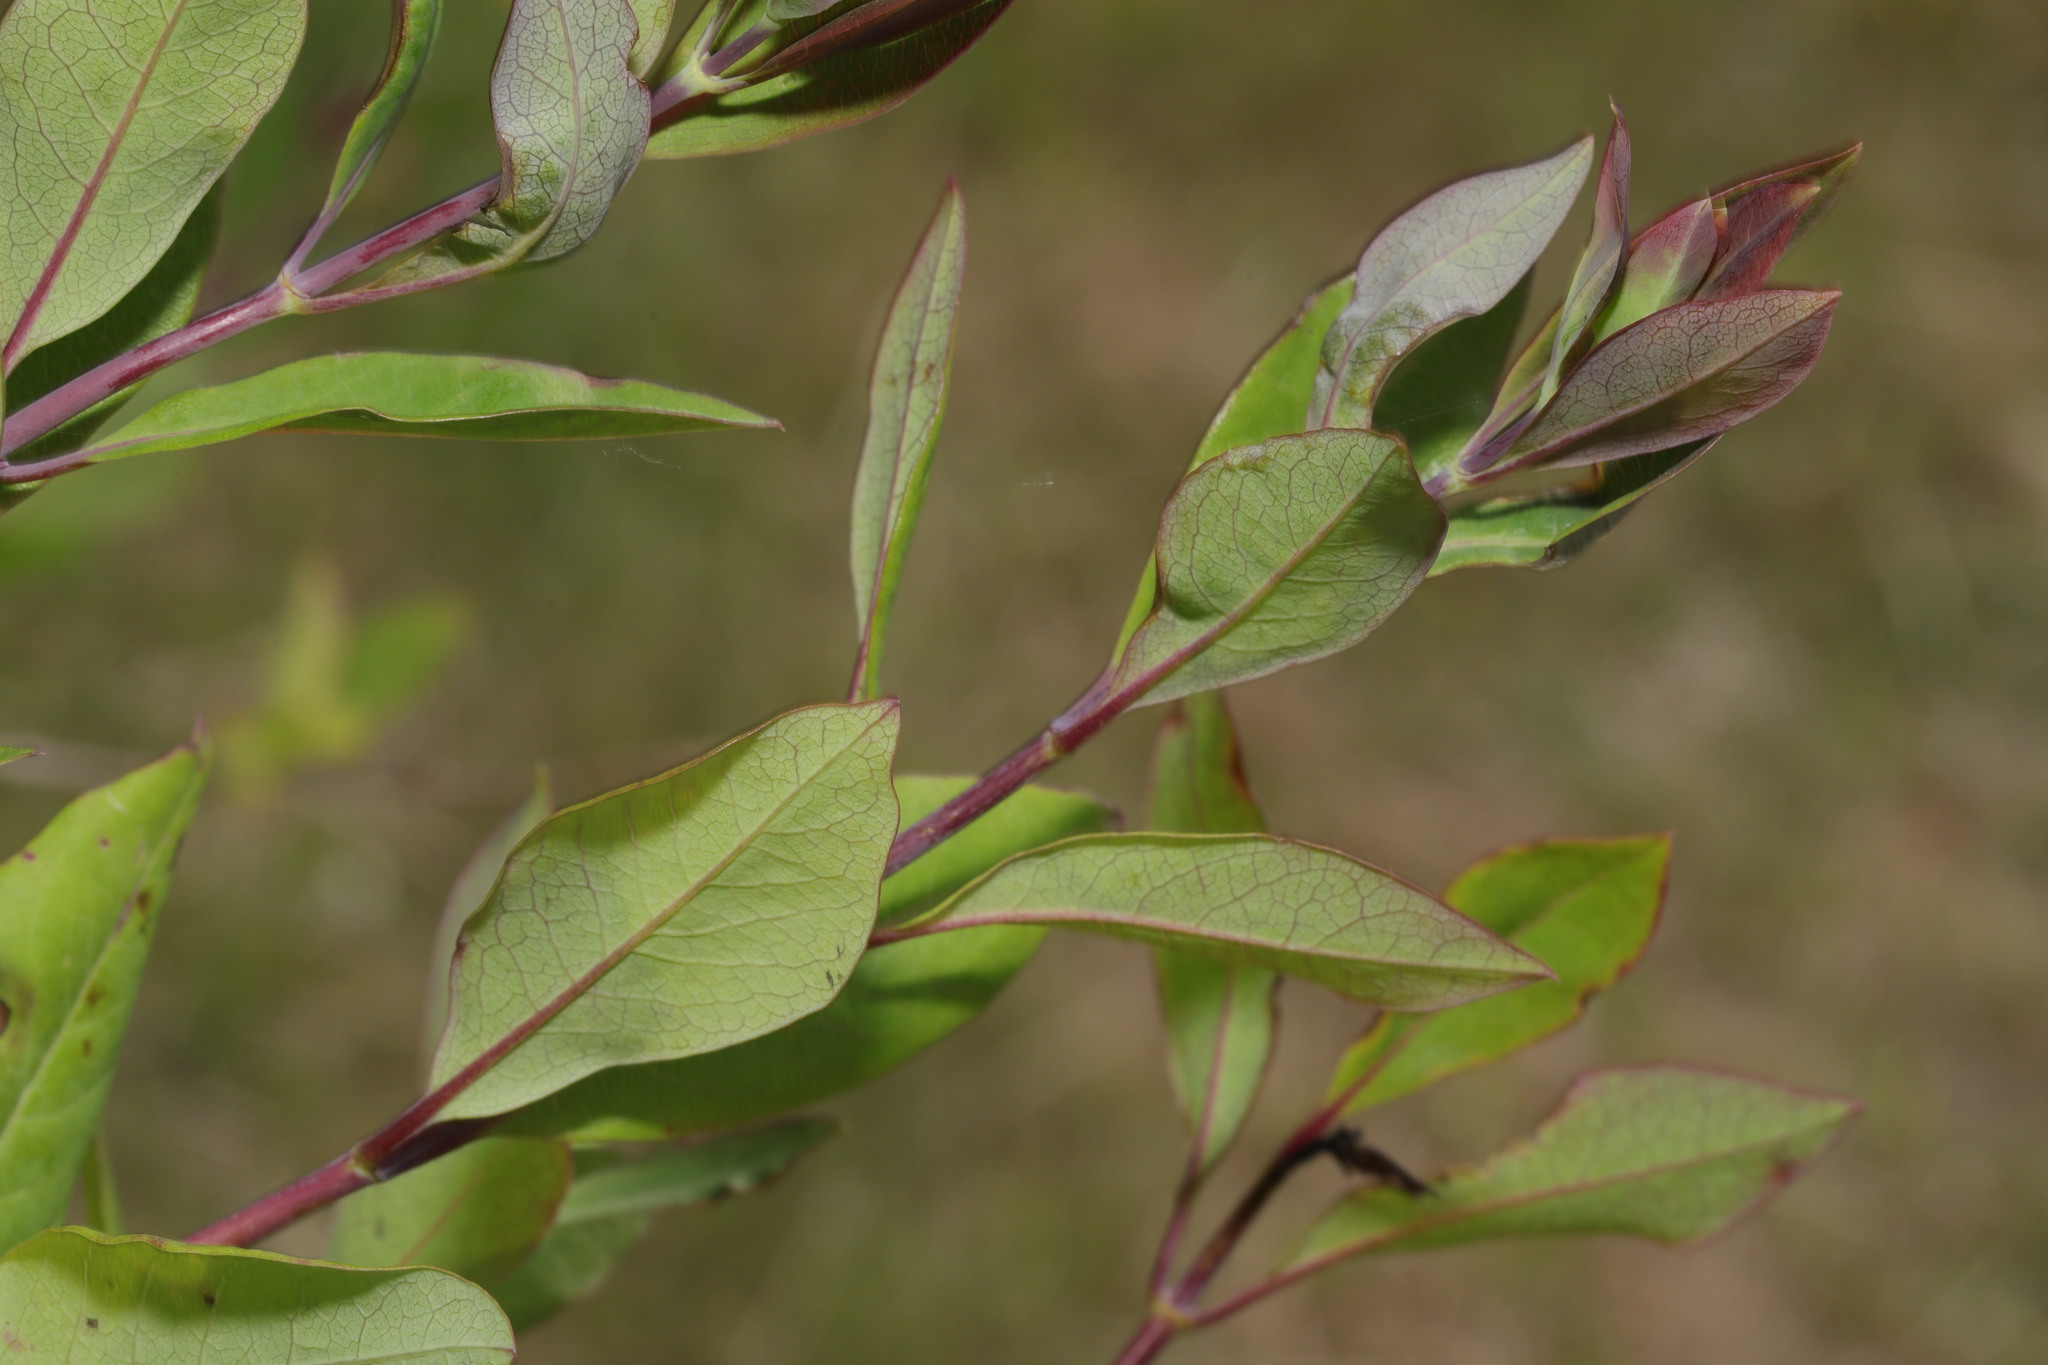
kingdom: Plantae
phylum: Tracheophyta
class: Magnoliopsida
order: Dipsacales
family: Caprifoliaceae
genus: Lonicera
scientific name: Lonicera periclymenum
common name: European honeysuckle
